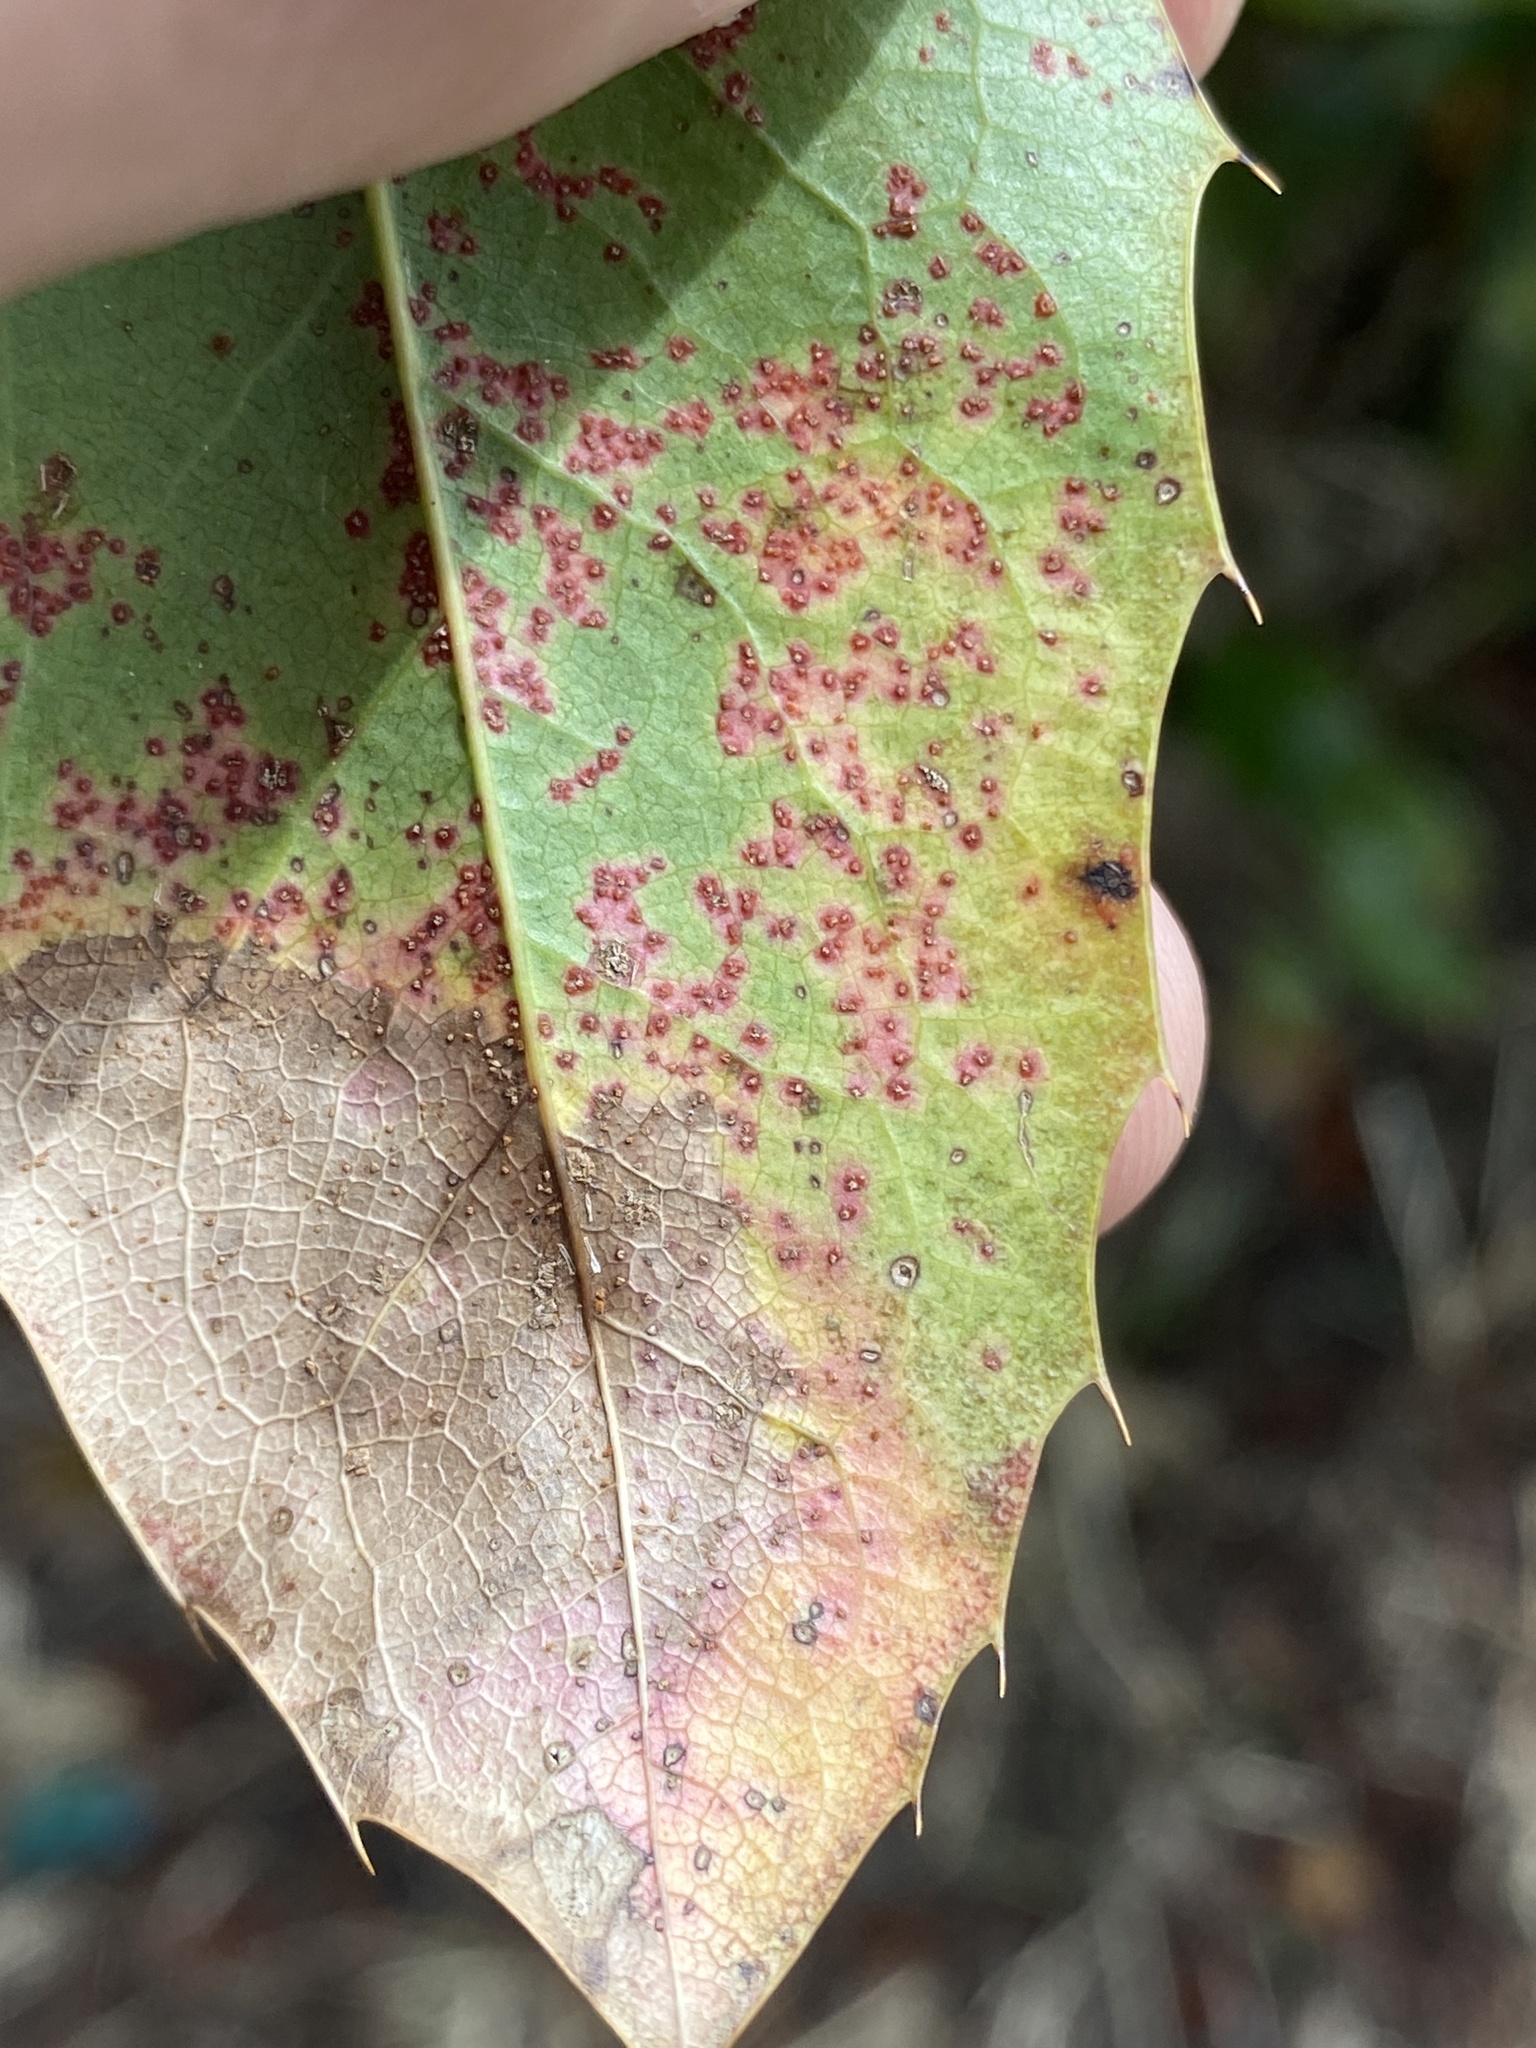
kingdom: Fungi
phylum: Basidiomycota
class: Pucciniomycetes
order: Pucciniales
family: Pucciniaceae
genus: Cumminsiella
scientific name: Cumminsiella mirabilissima
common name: Mahonia rust
